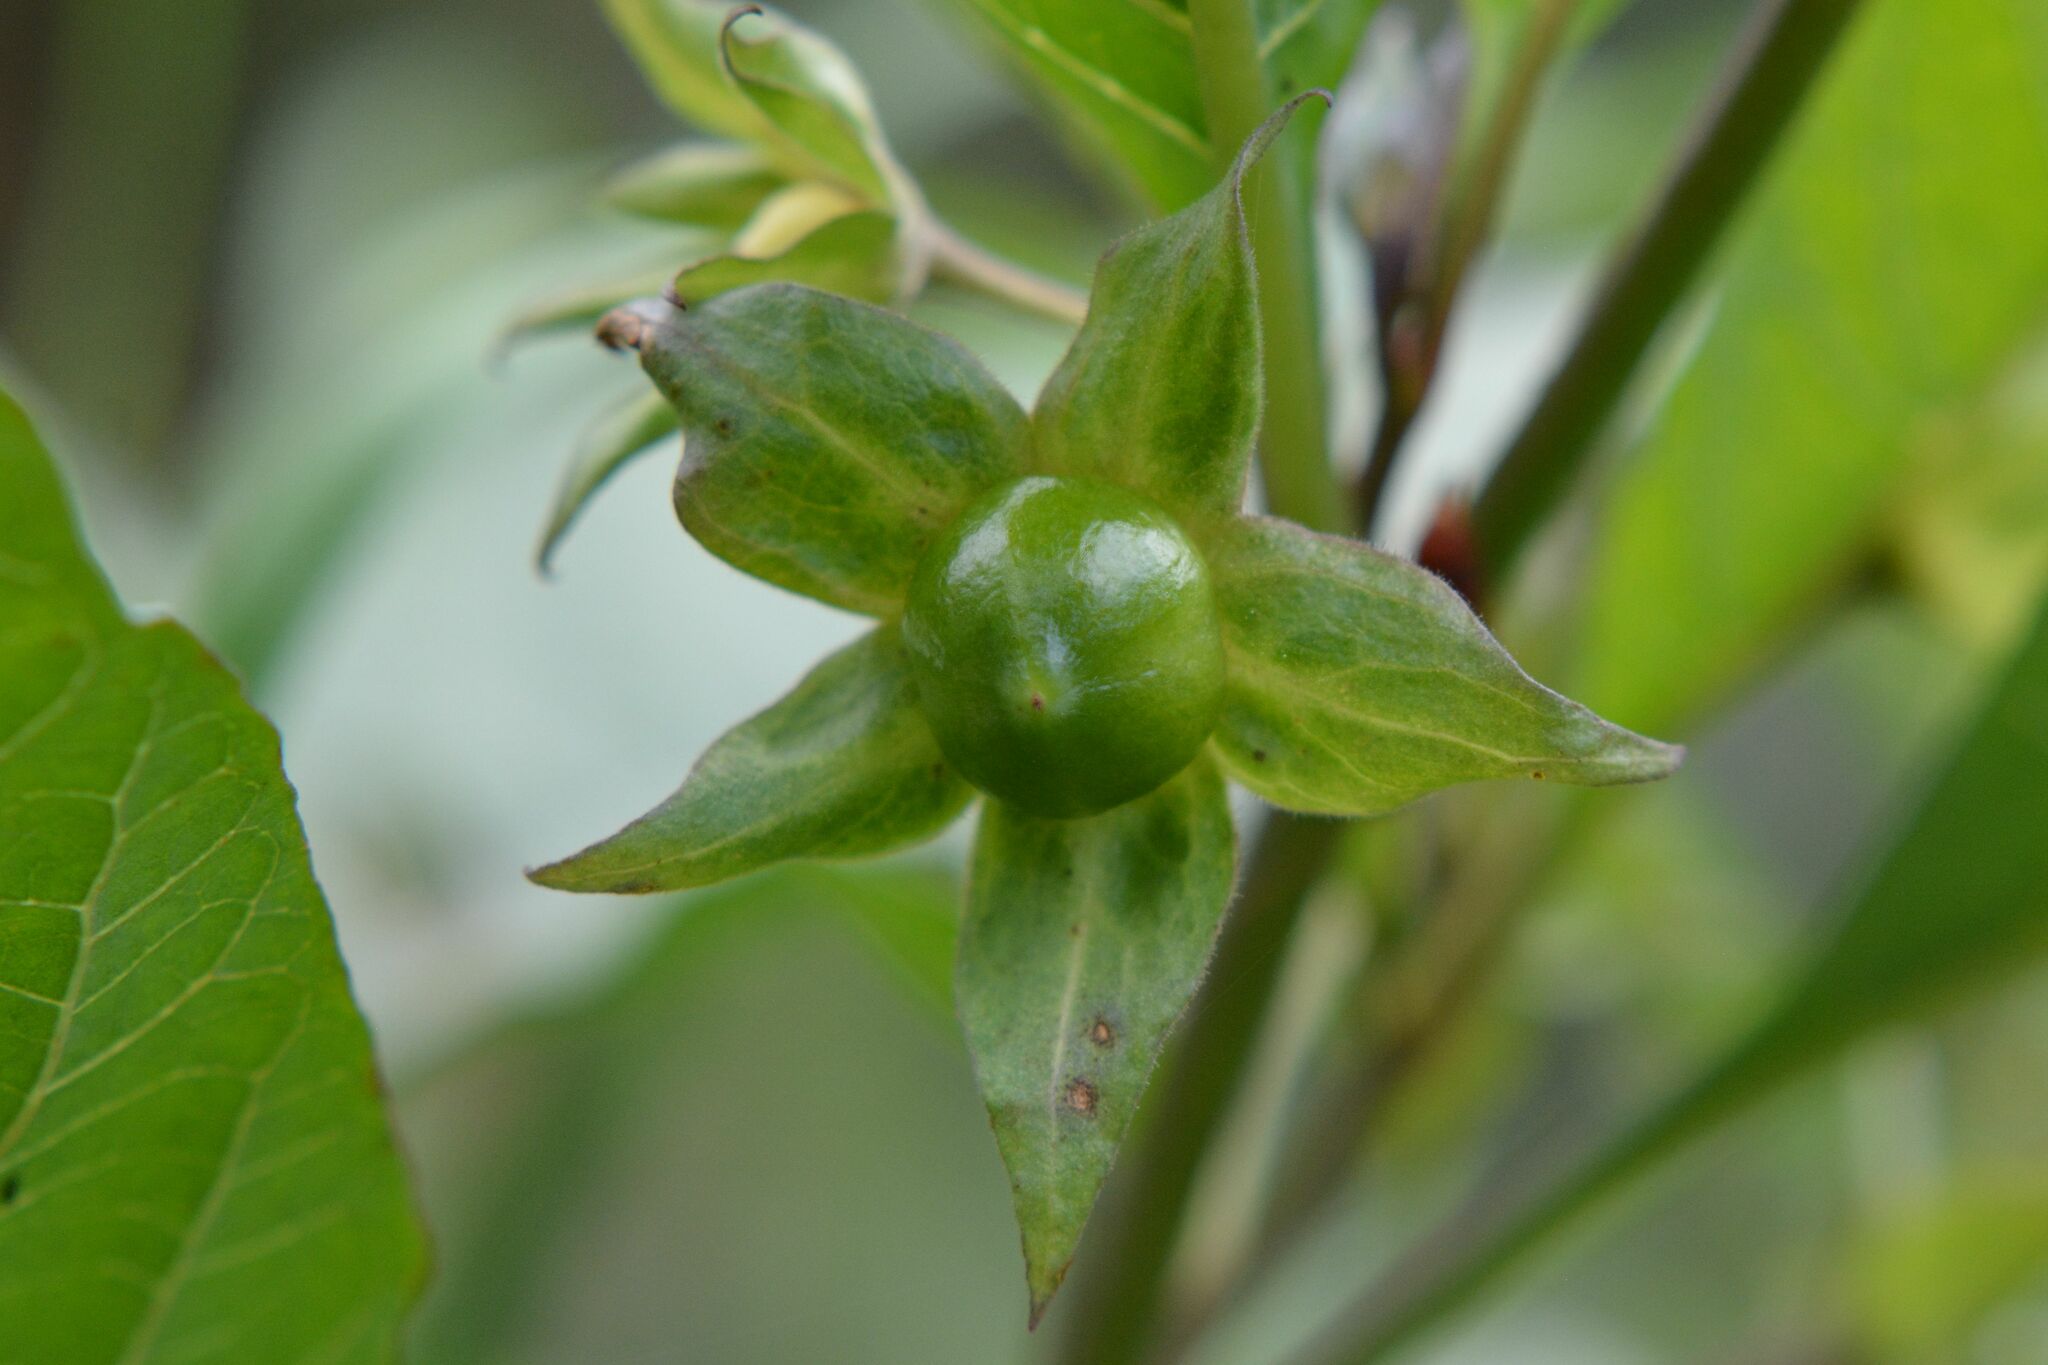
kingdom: Plantae
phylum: Tracheophyta
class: Magnoliopsida
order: Solanales
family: Solanaceae
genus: Atropa
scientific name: Atropa belladonna
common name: Deadly nightshade
